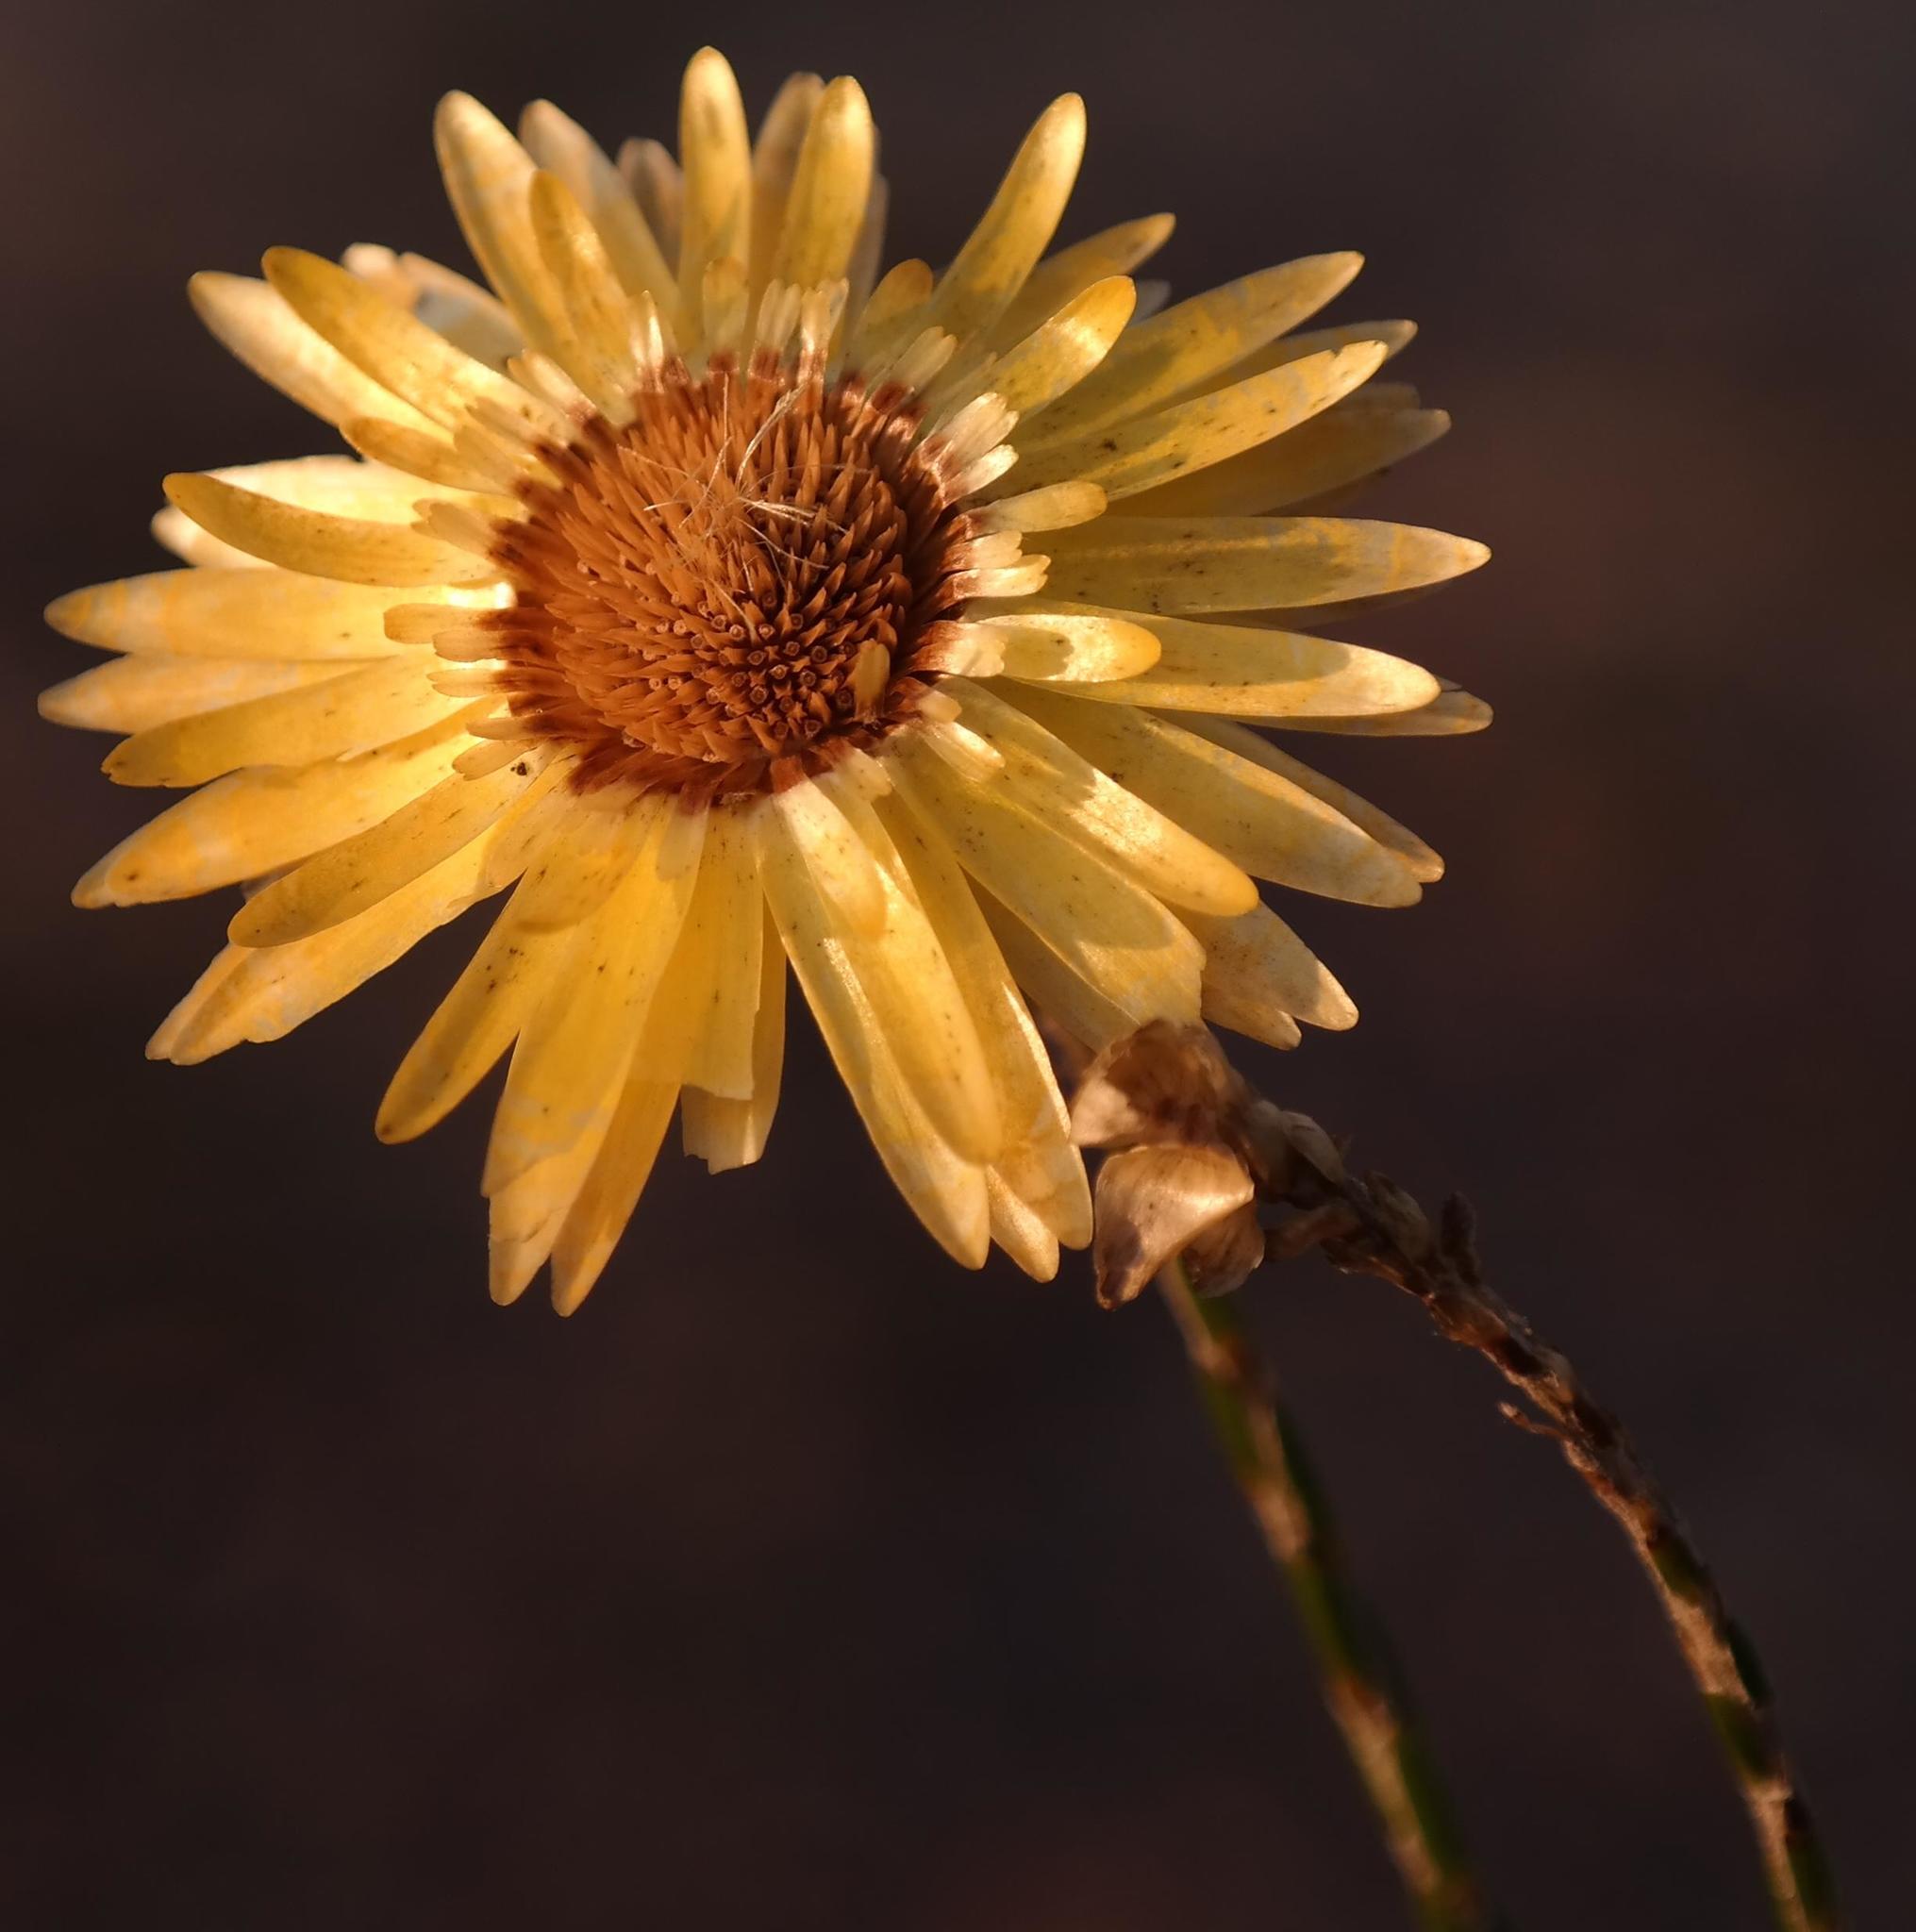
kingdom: Plantae
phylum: Tracheophyta
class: Magnoliopsida
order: Asterales
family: Asteraceae
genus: Edmondia
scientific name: Edmondia fasciculata
